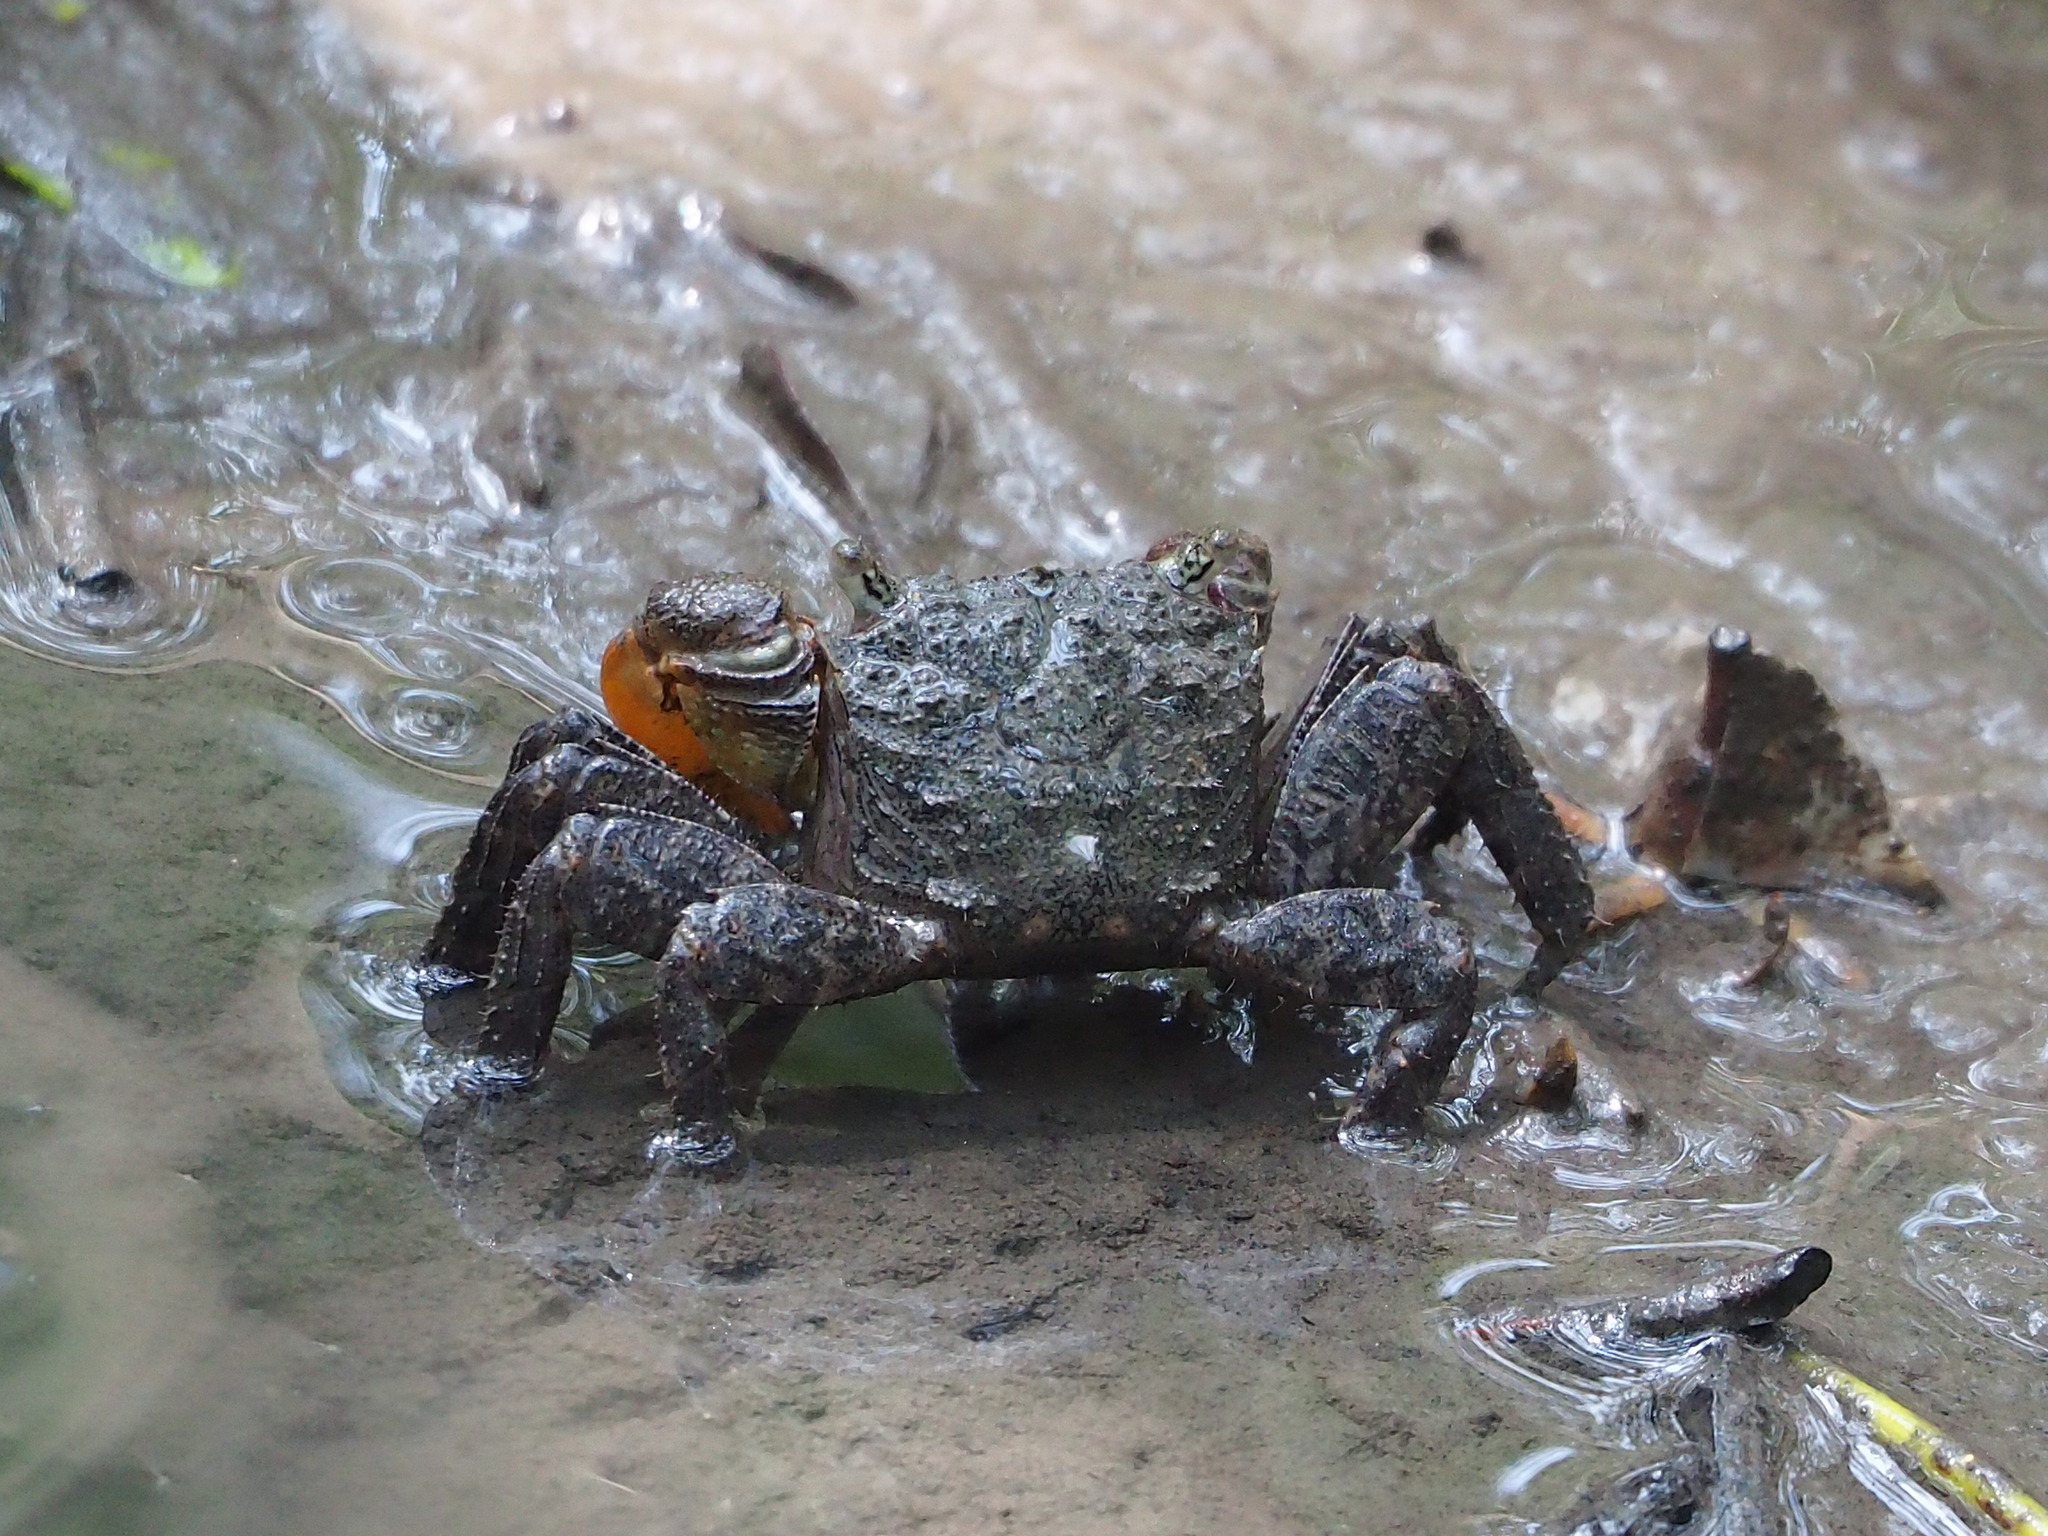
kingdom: Animalia
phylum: Arthropoda
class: Malacostraca
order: Decapoda
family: Sesarmidae
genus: Parasesarma
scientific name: Parasesarma bidens
